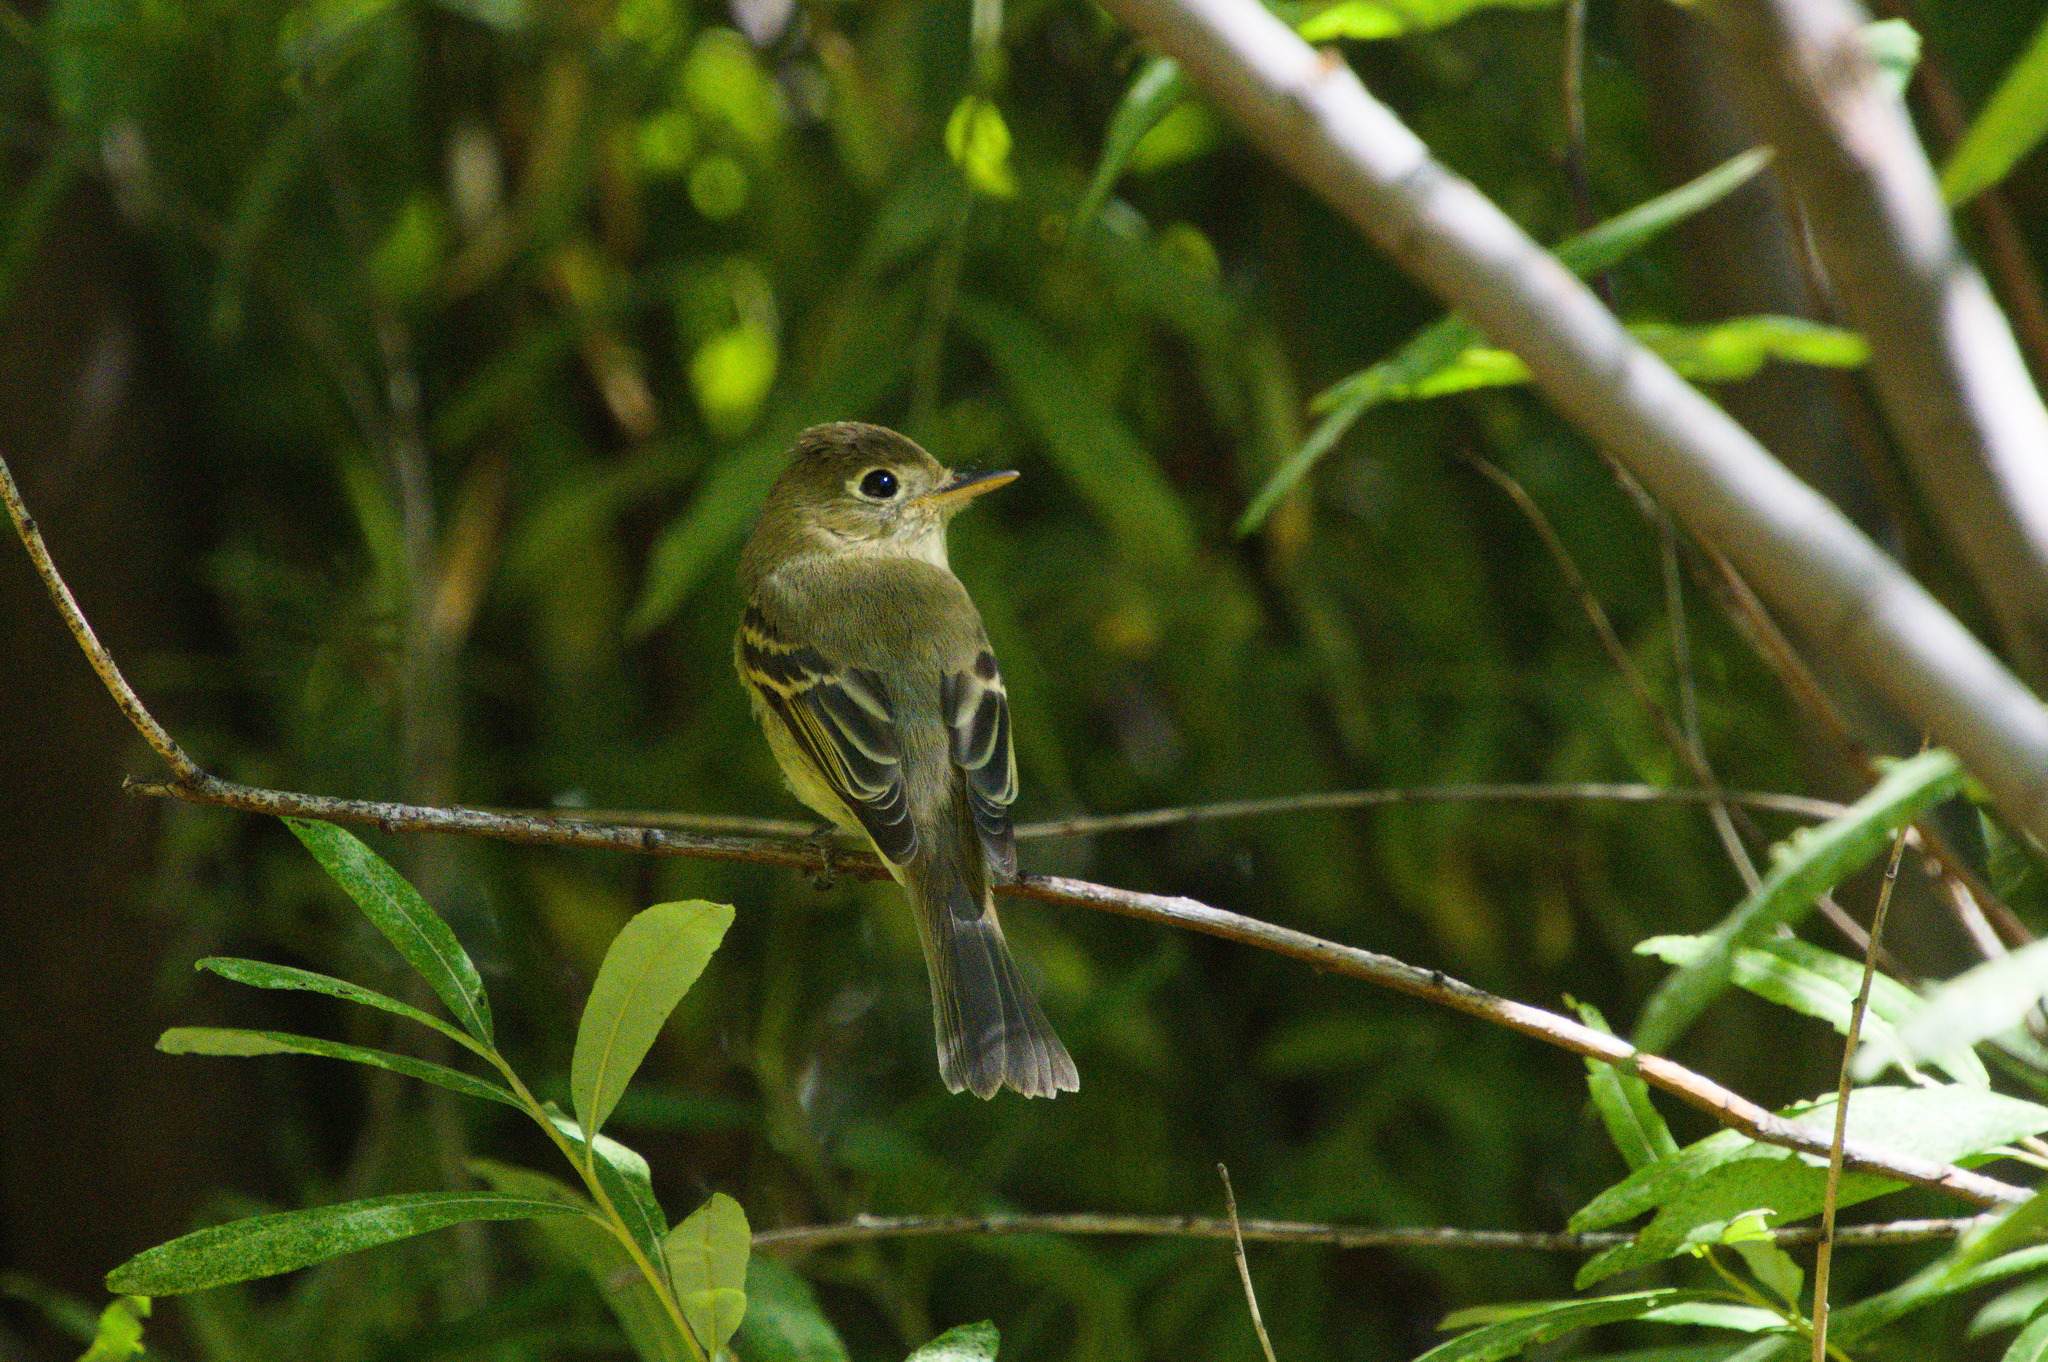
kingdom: Animalia
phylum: Chordata
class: Aves
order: Passeriformes
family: Tyrannidae
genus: Empidonax
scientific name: Empidonax difficilis
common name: Pacific-slope flycatcher
